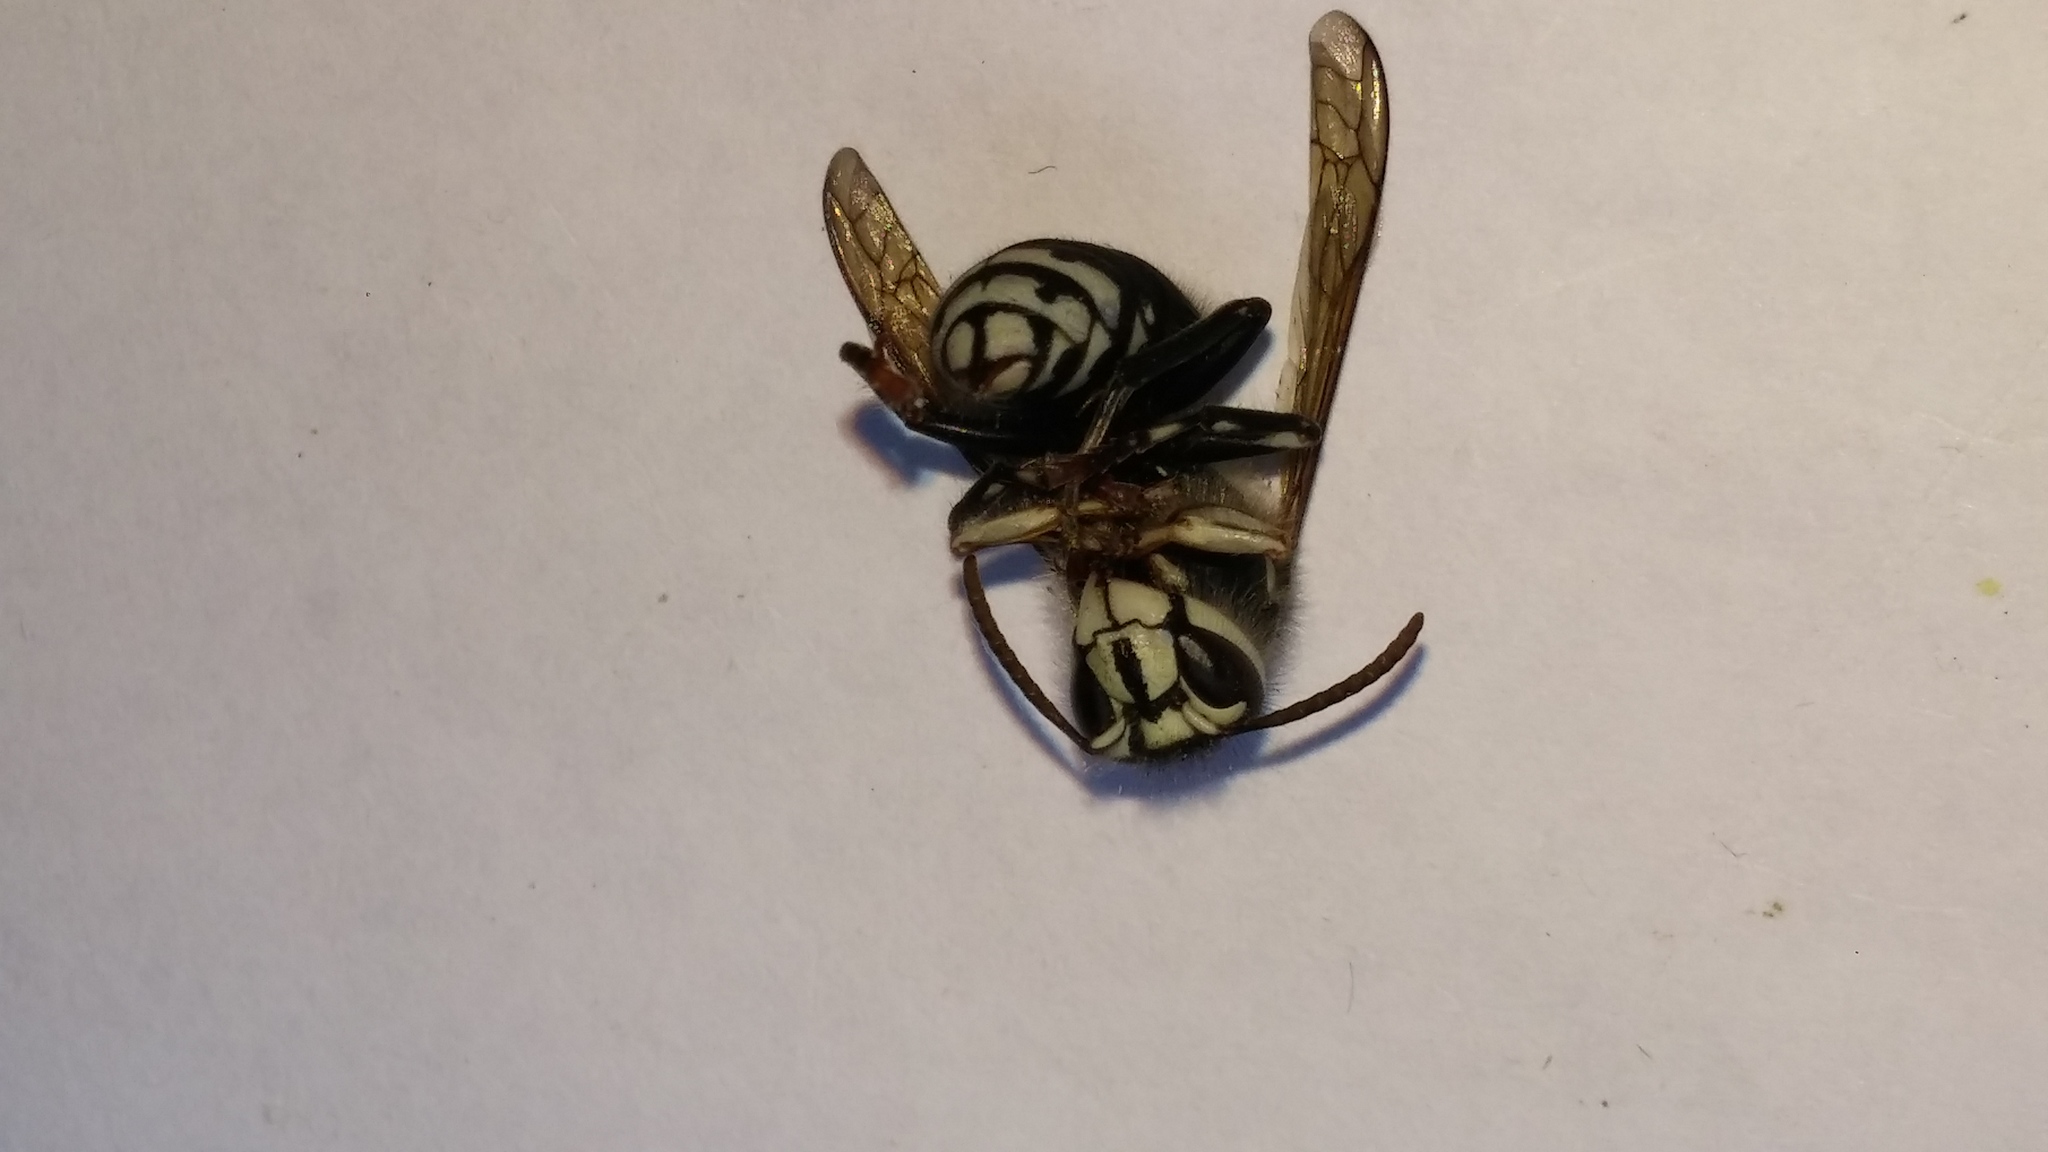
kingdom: Animalia
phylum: Arthropoda
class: Insecta
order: Hymenoptera
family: Vespidae
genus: Dolichovespula
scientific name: Dolichovespula maculata
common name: Bald-faced hornet
